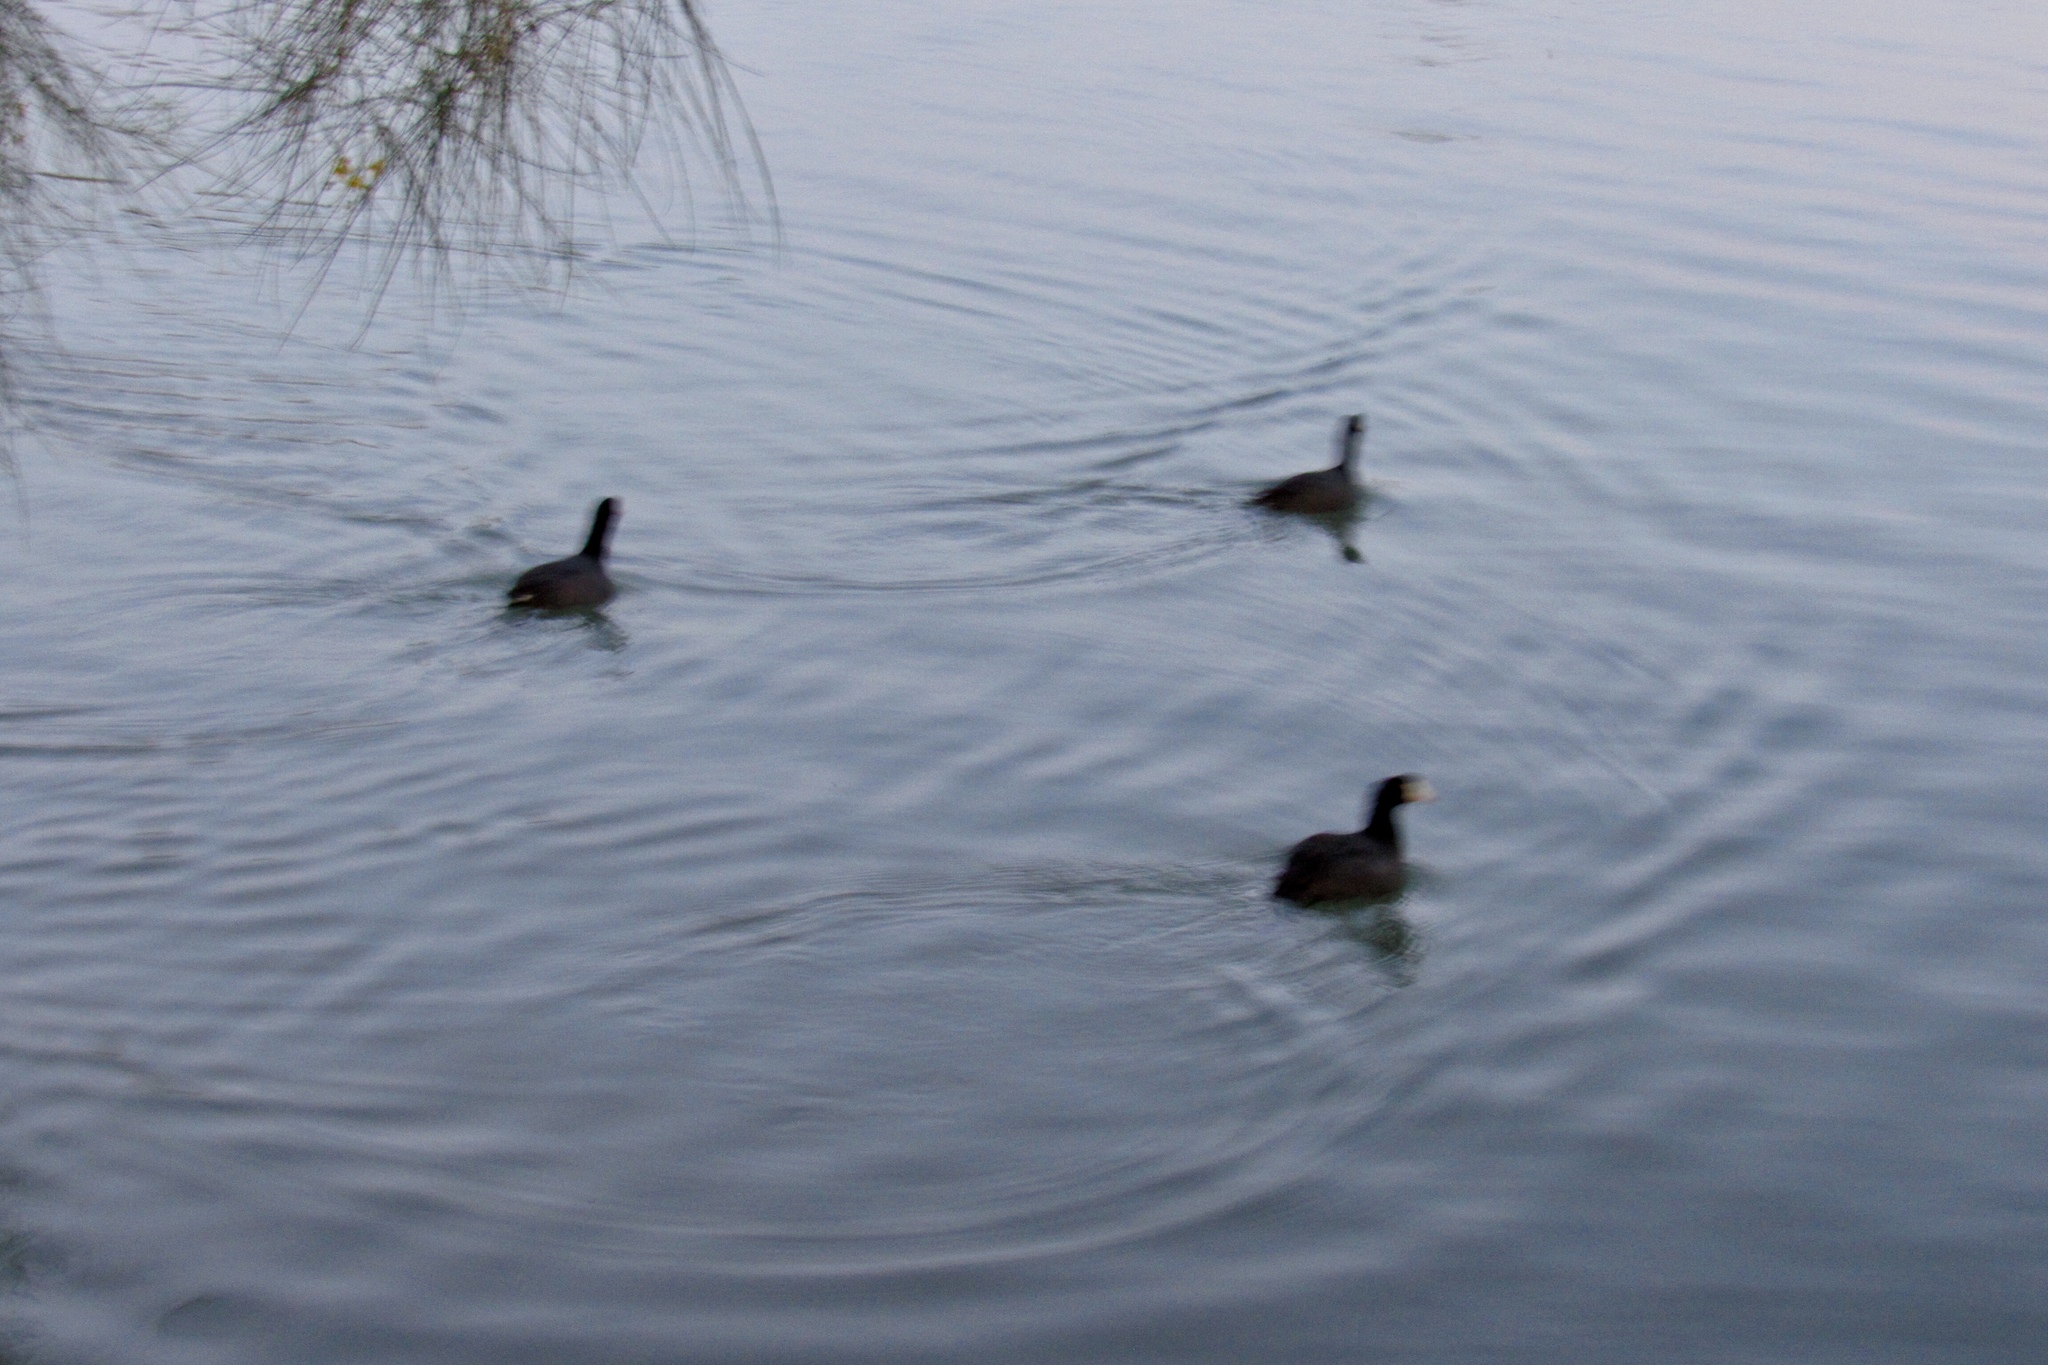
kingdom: Animalia
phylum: Chordata
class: Aves
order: Gruiformes
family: Rallidae
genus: Fulica
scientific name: Fulica americana
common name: American coot
